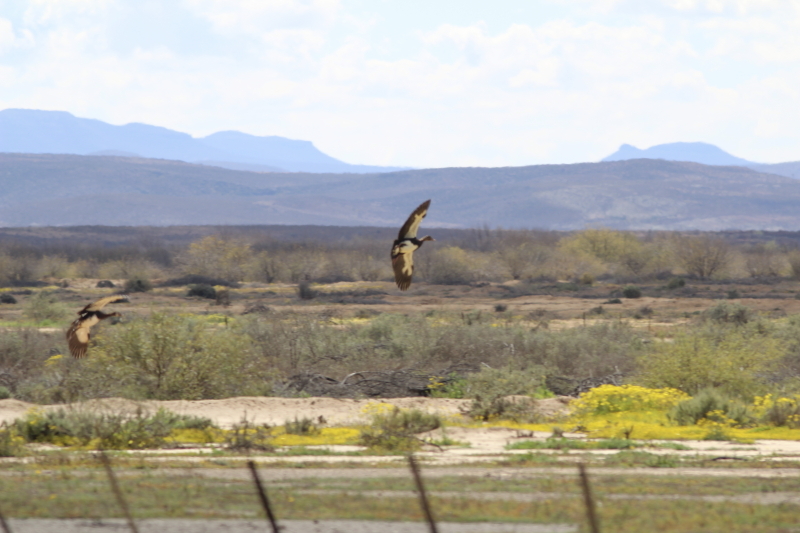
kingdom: Animalia
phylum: Chordata
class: Aves
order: Anseriformes
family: Anatidae
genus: Plectropterus
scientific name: Plectropterus gambensis
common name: Spur-winged goose
